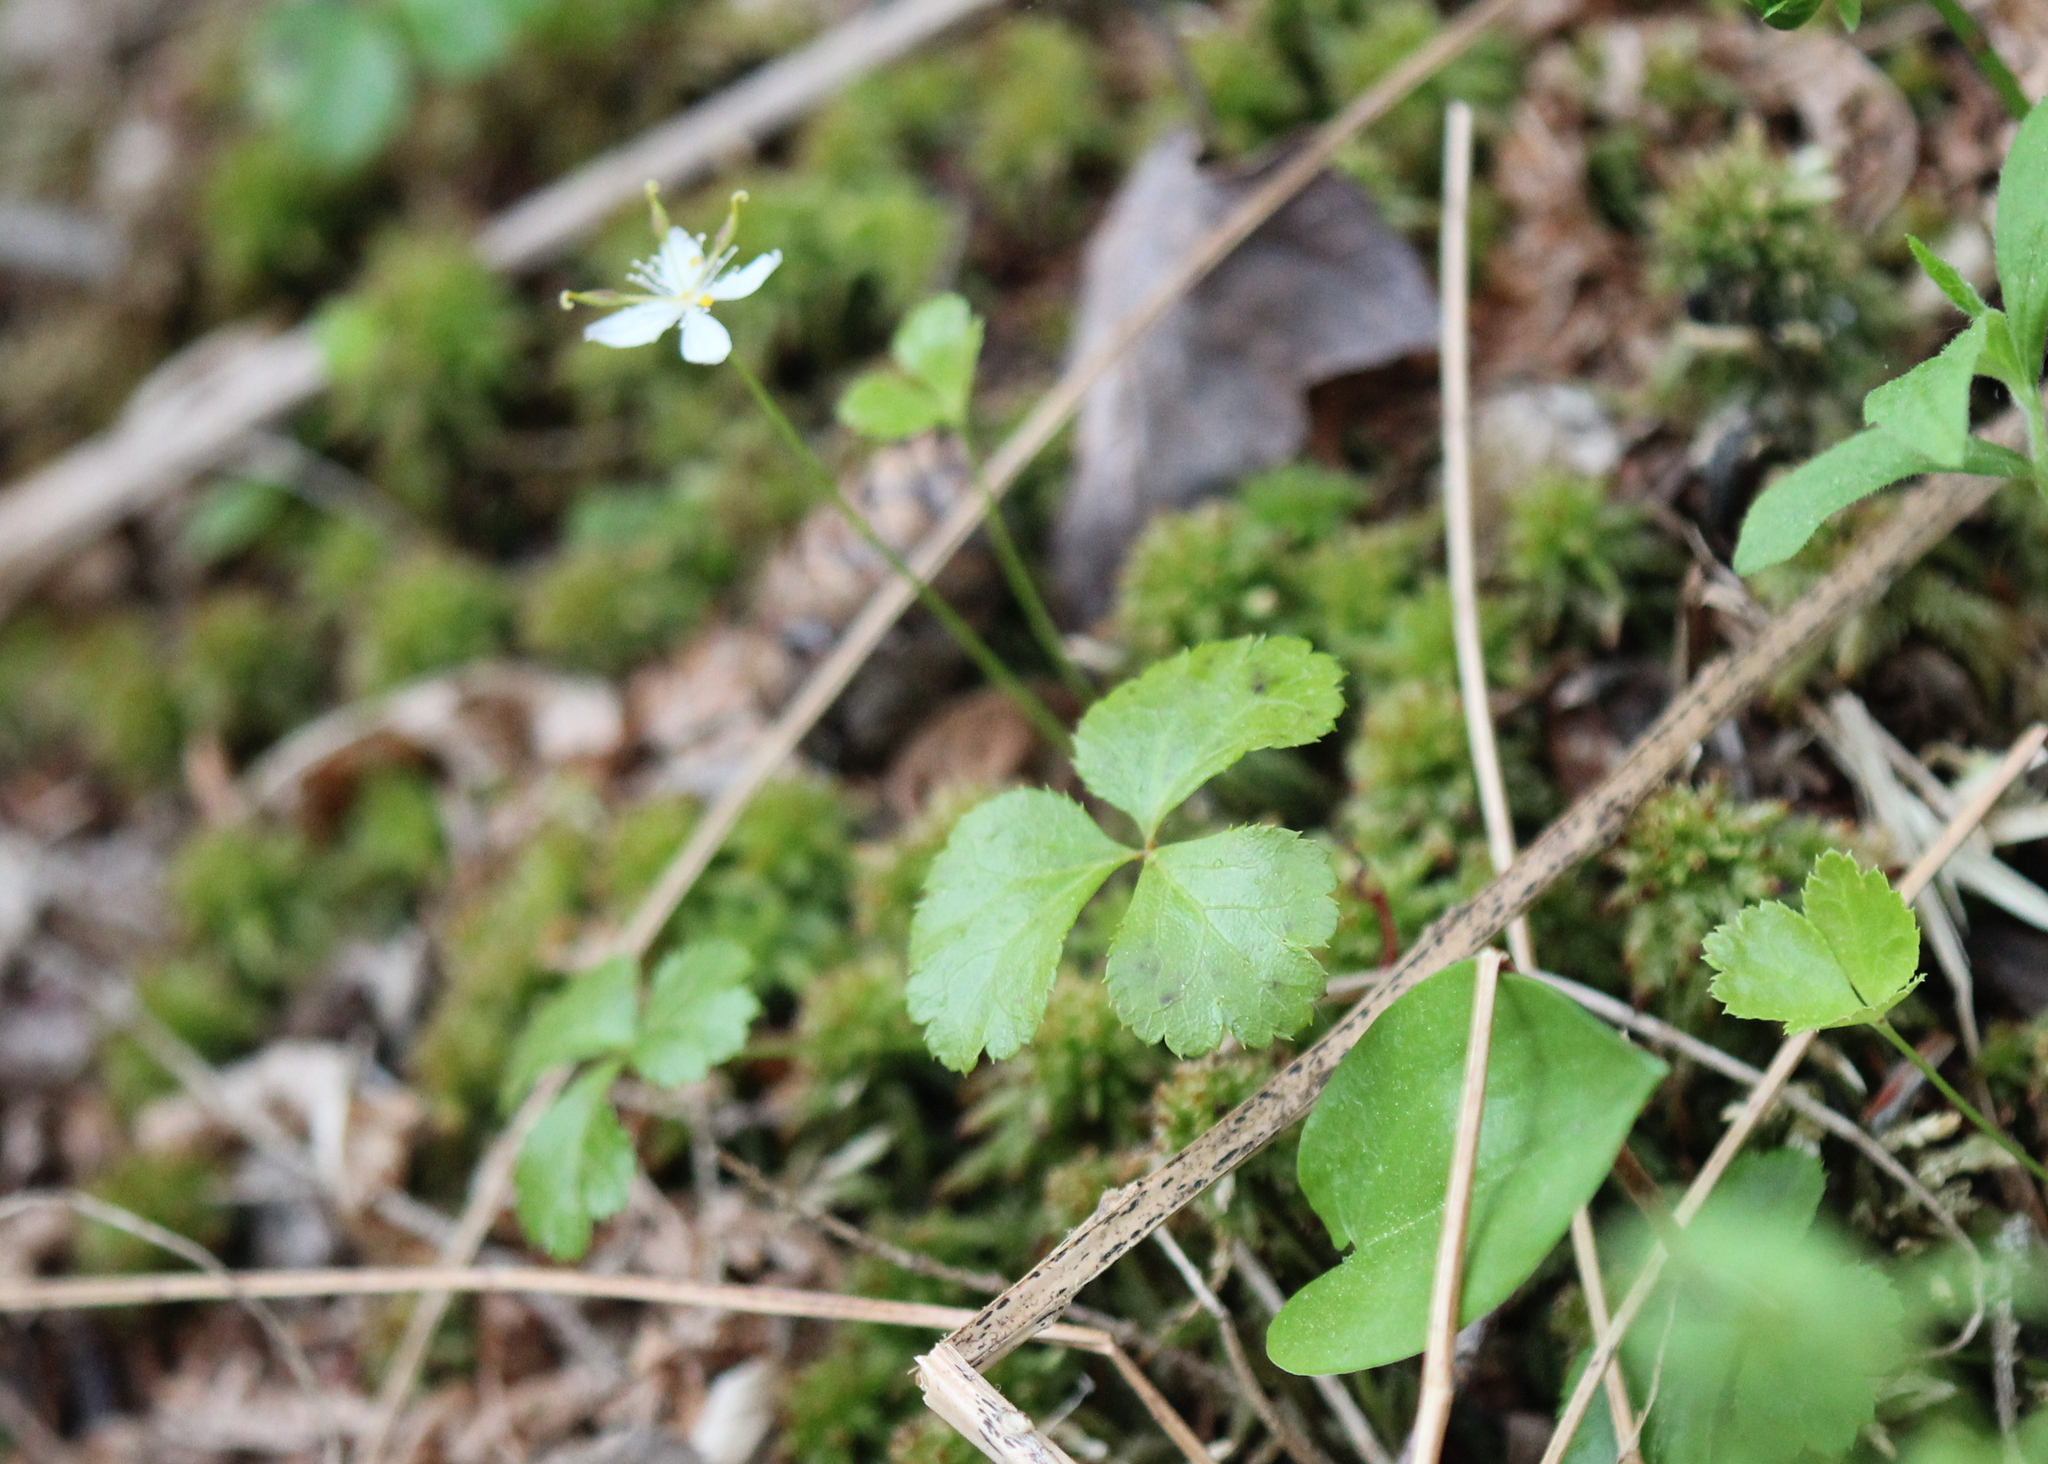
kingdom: Plantae
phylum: Tracheophyta
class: Magnoliopsida
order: Ranunculales
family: Ranunculaceae
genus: Coptis
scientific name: Coptis trifolia
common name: Canker-root
